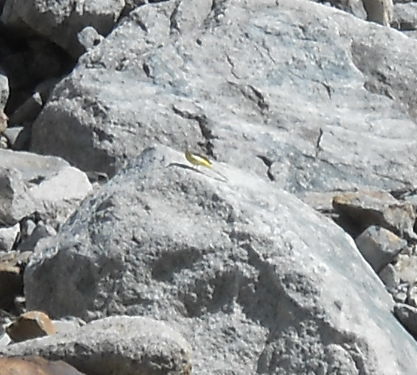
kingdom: Animalia
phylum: Chordata
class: Aves
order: Passeriformes
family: Motacillidae
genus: Motacilla
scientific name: Motacilla cinerea
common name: Grey wagtail
